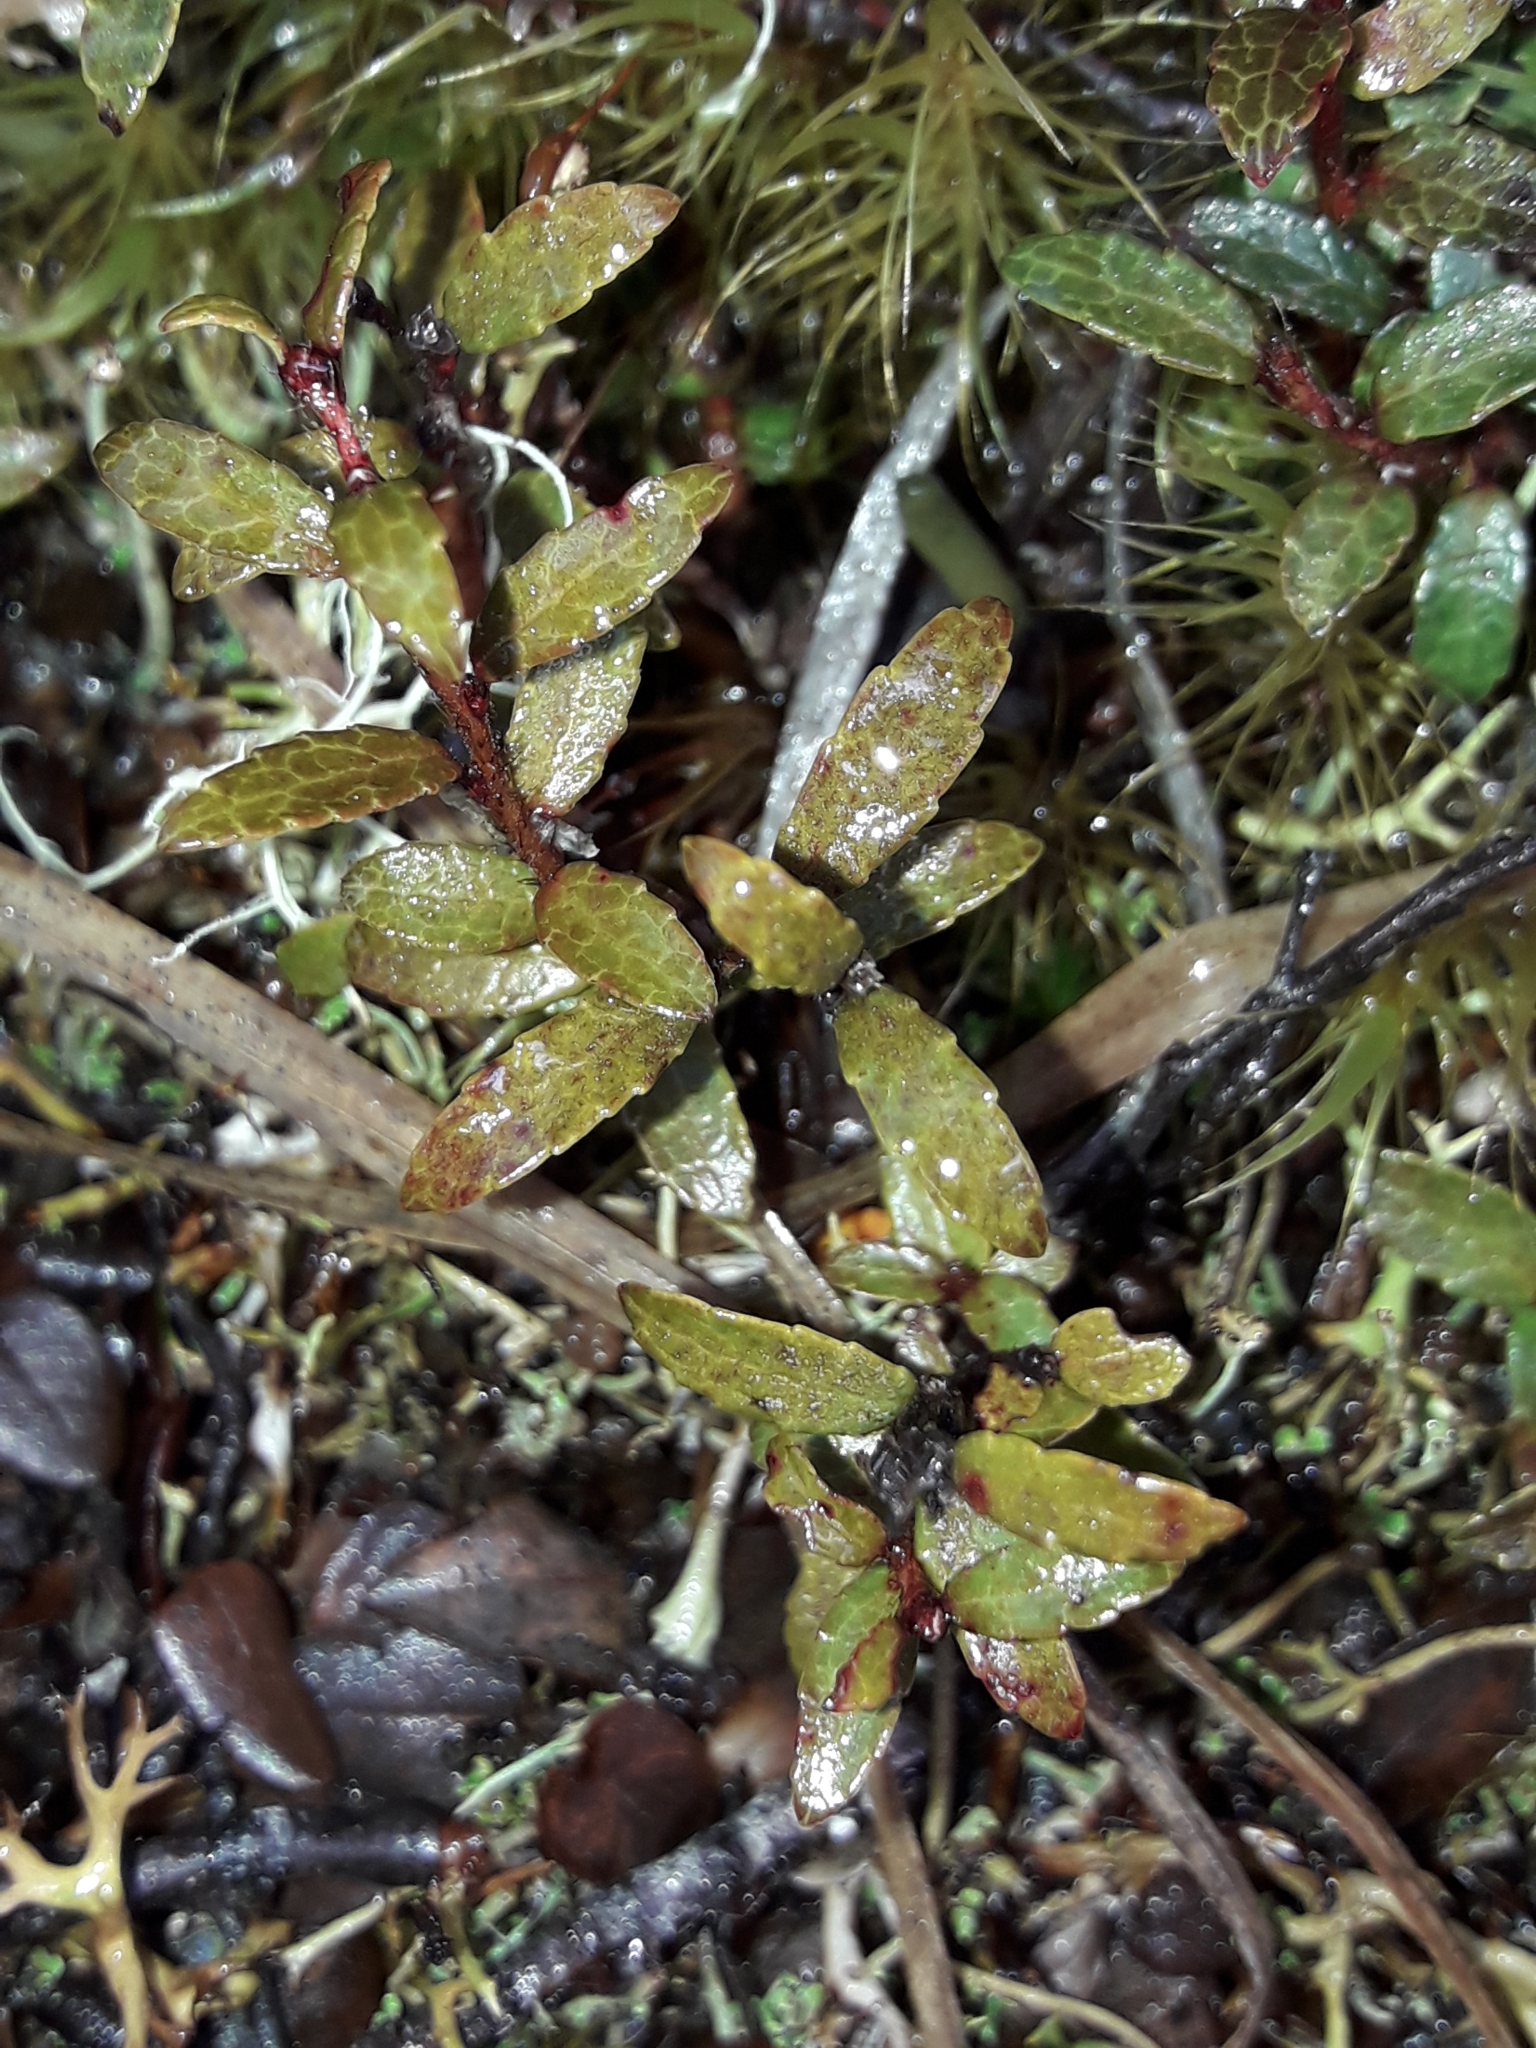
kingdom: Plantae
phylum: Tracheophyta
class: Magnoliopsida
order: Ericales
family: Ericaceae
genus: Gaultheria
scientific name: Gaultheria macrostigma
